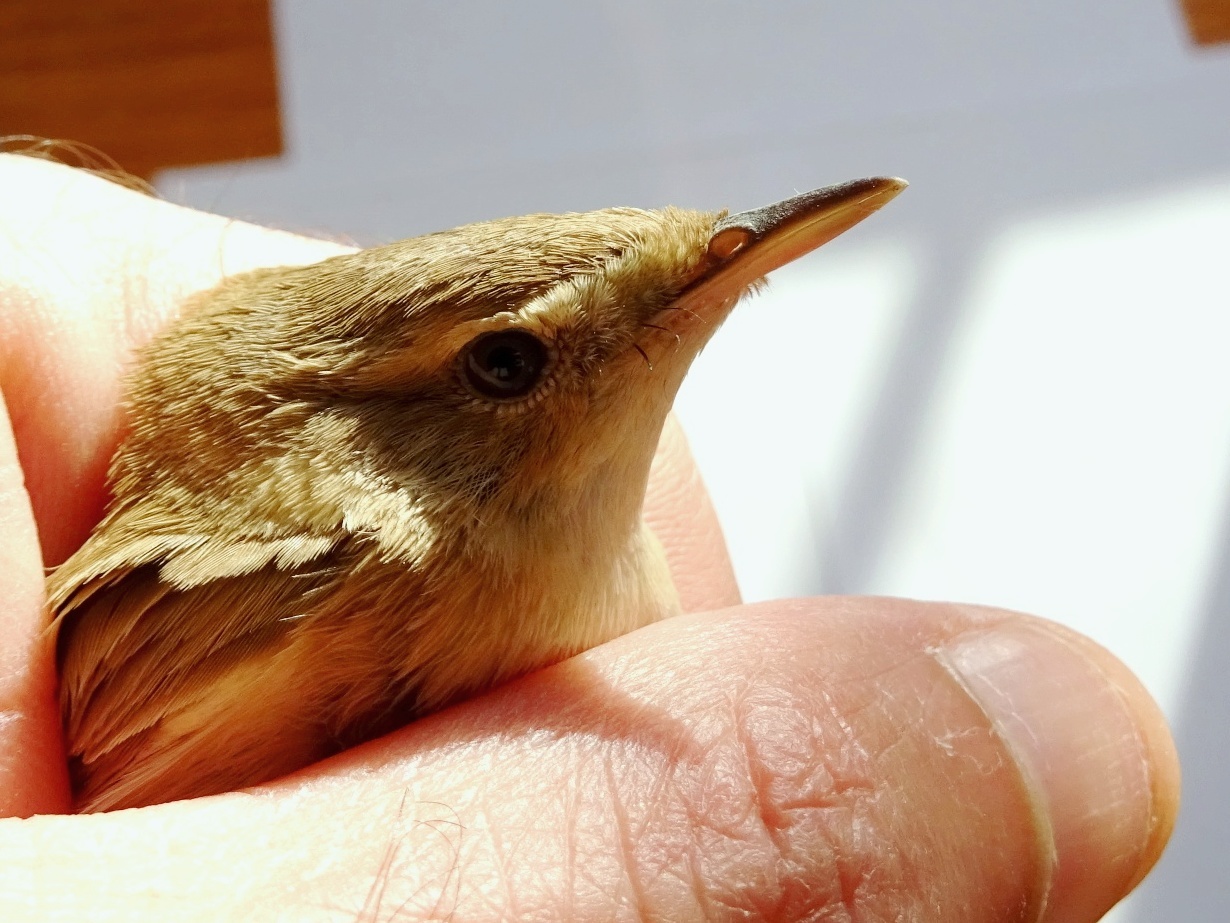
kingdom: Animalia
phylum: Chordata
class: Aves
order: Passeriformes
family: Acrocephalidae
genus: Iduna
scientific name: Iduna rama
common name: Sykes's warbler
